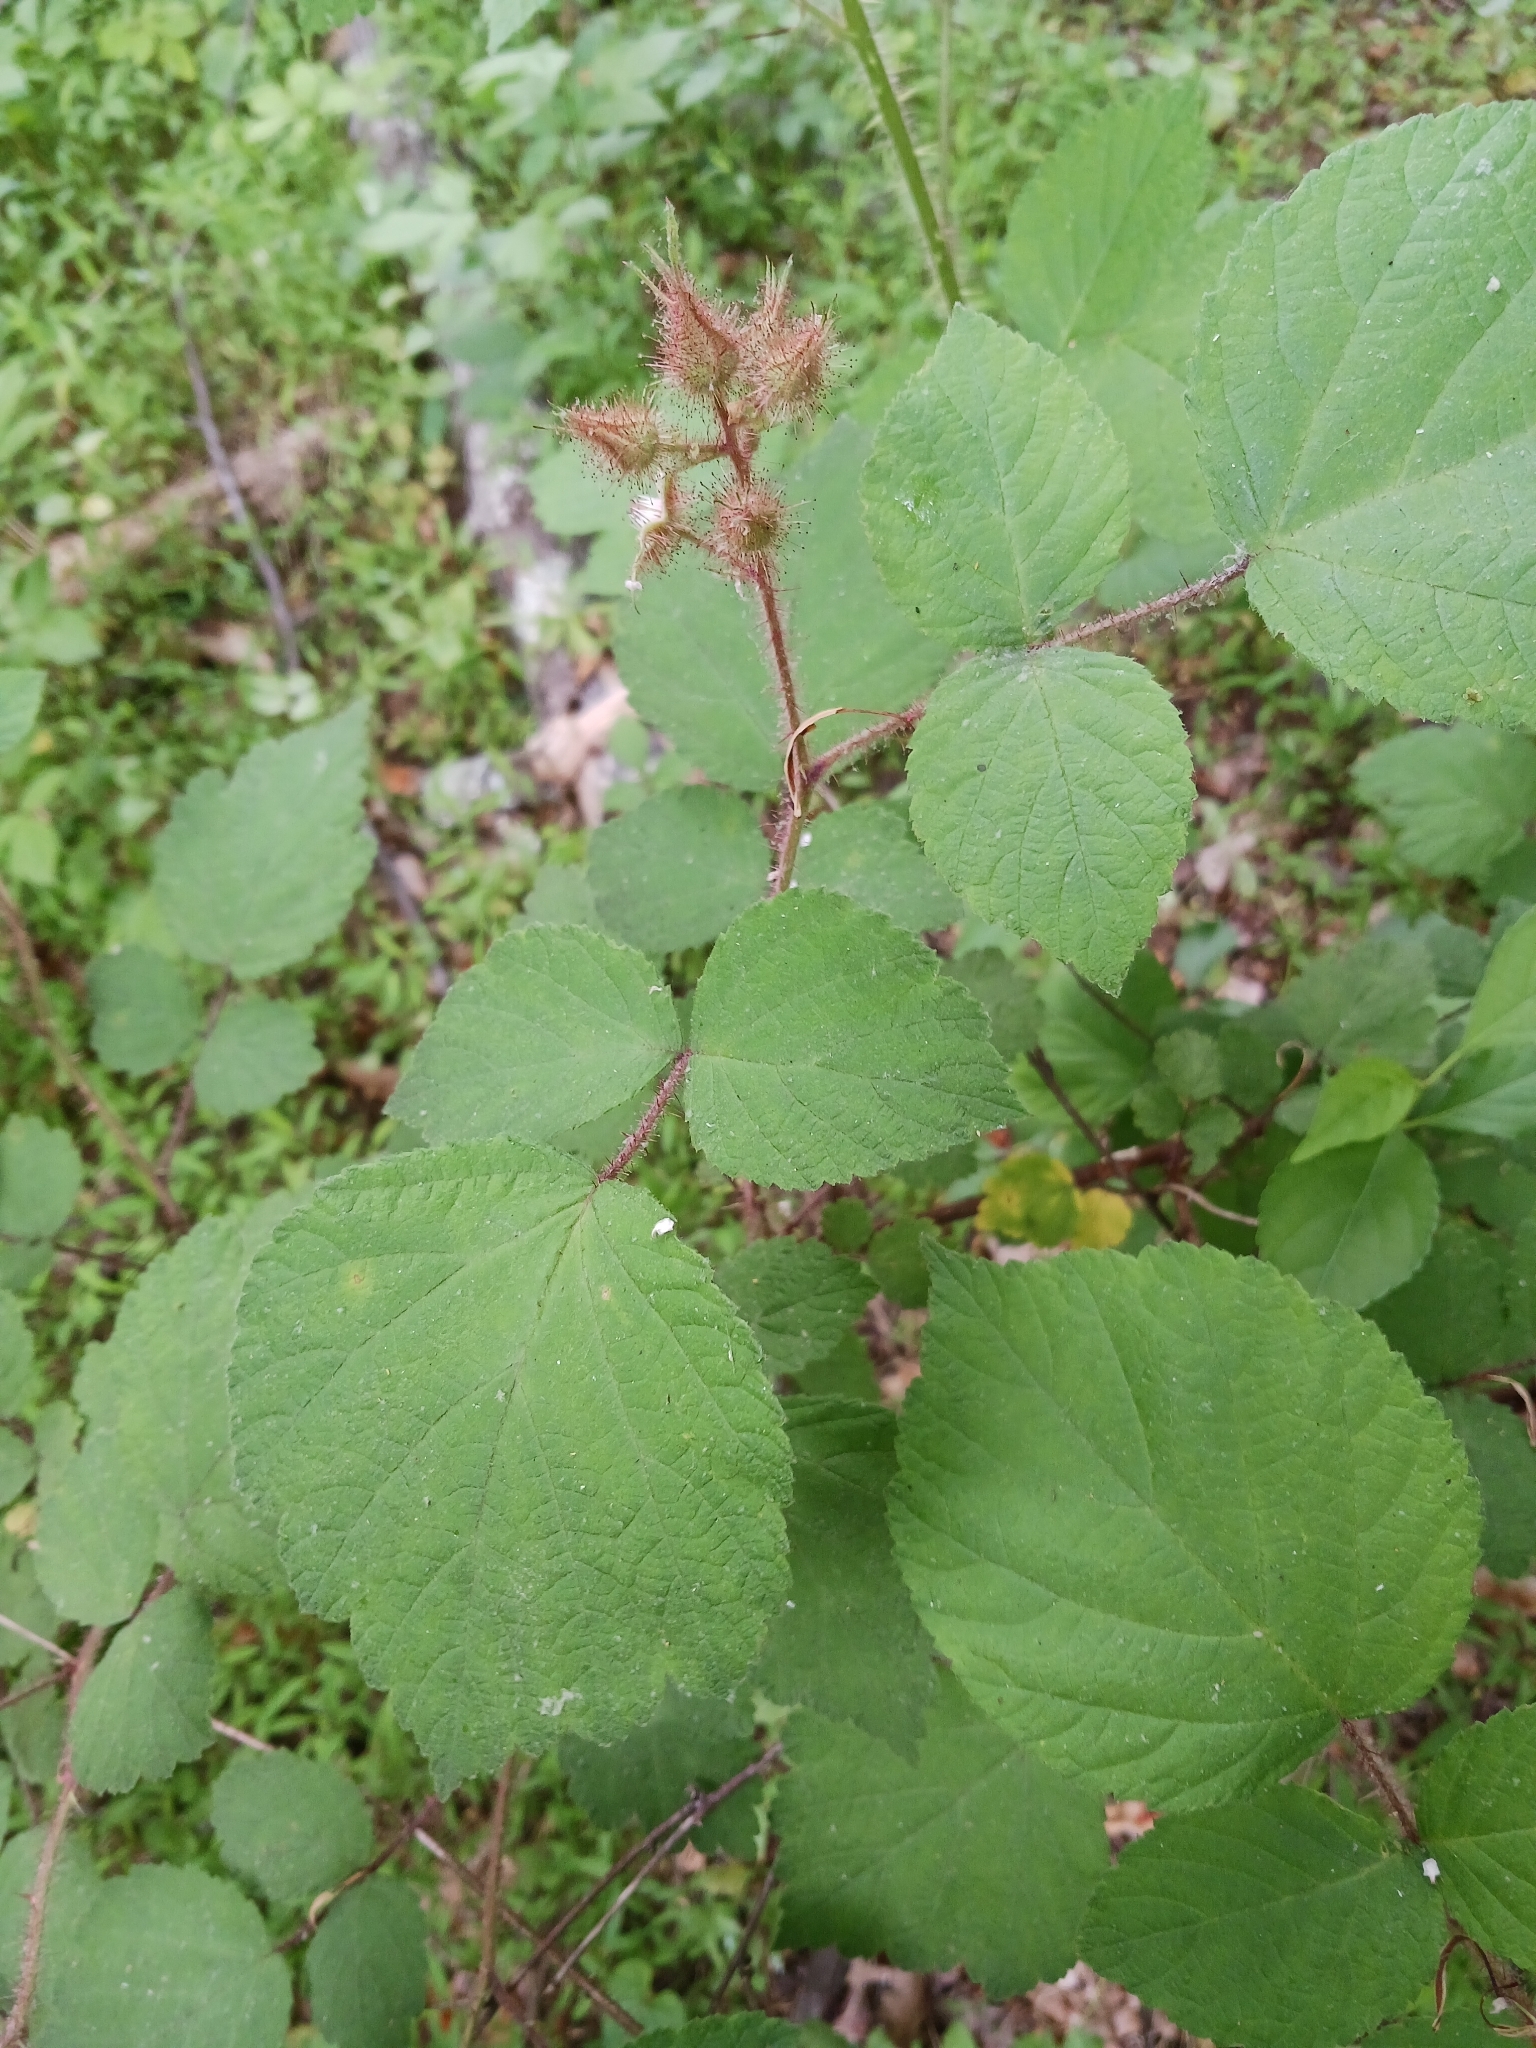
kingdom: Plantae
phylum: Tracheophyta
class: Magnoliopsida
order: Rosales
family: Rosaceae
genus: Rubus
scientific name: Rubus phoenicolasius
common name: Japanese wineberry
